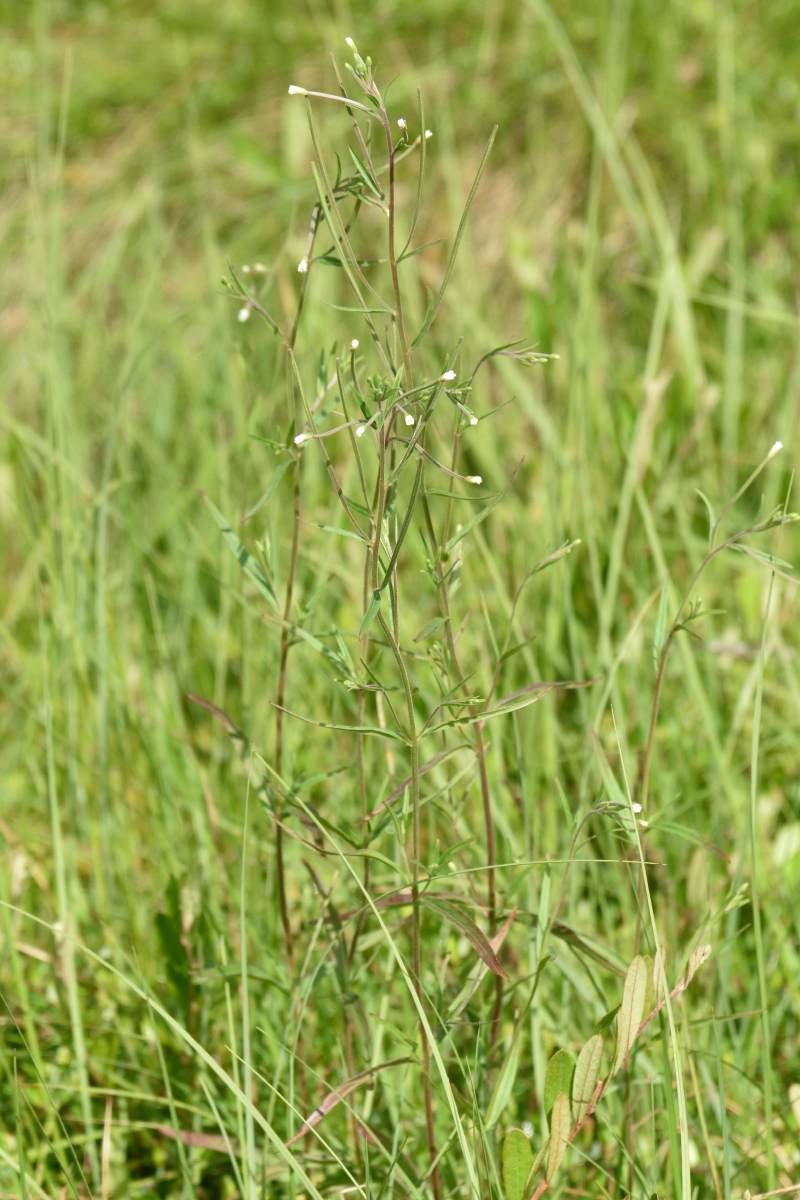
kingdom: Plantae
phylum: Tracheophyta
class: Magnoliopsida
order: Myrtales
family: Onagraceae
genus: Epilobium
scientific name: Epilobium palustre
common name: Marsh willowherb
